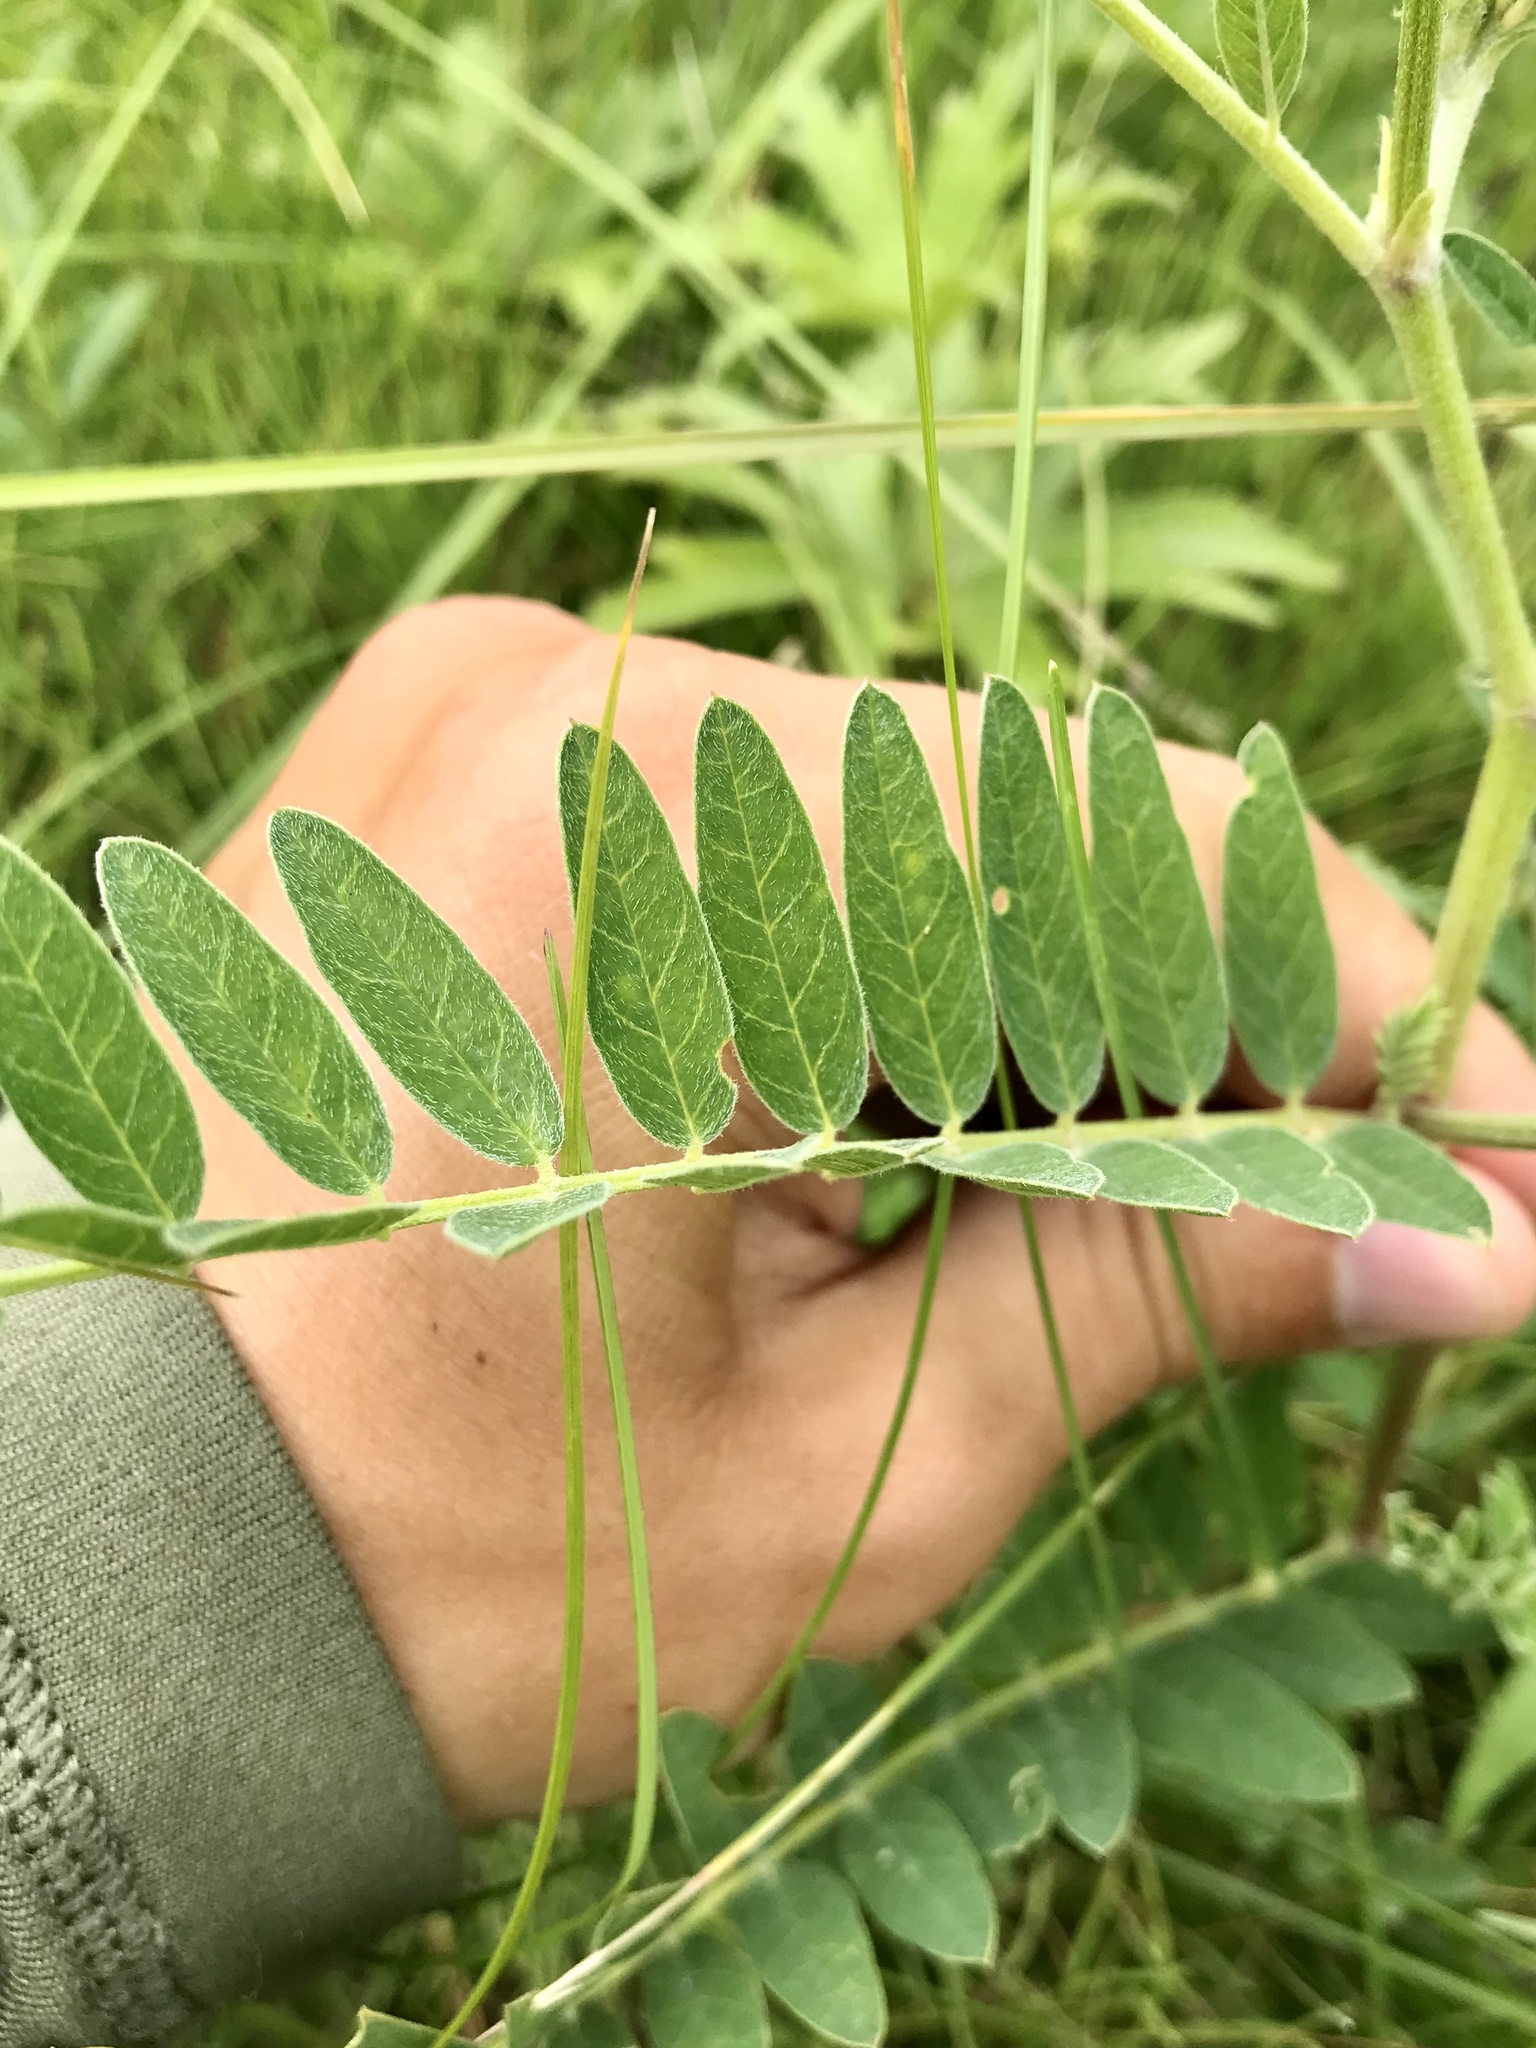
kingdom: Plantae
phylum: Tracheophyta
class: Magnoliopsida
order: Fabales
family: Fabaceae
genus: Astragalus
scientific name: Astragalus canadensis
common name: Canada milk-vetch
